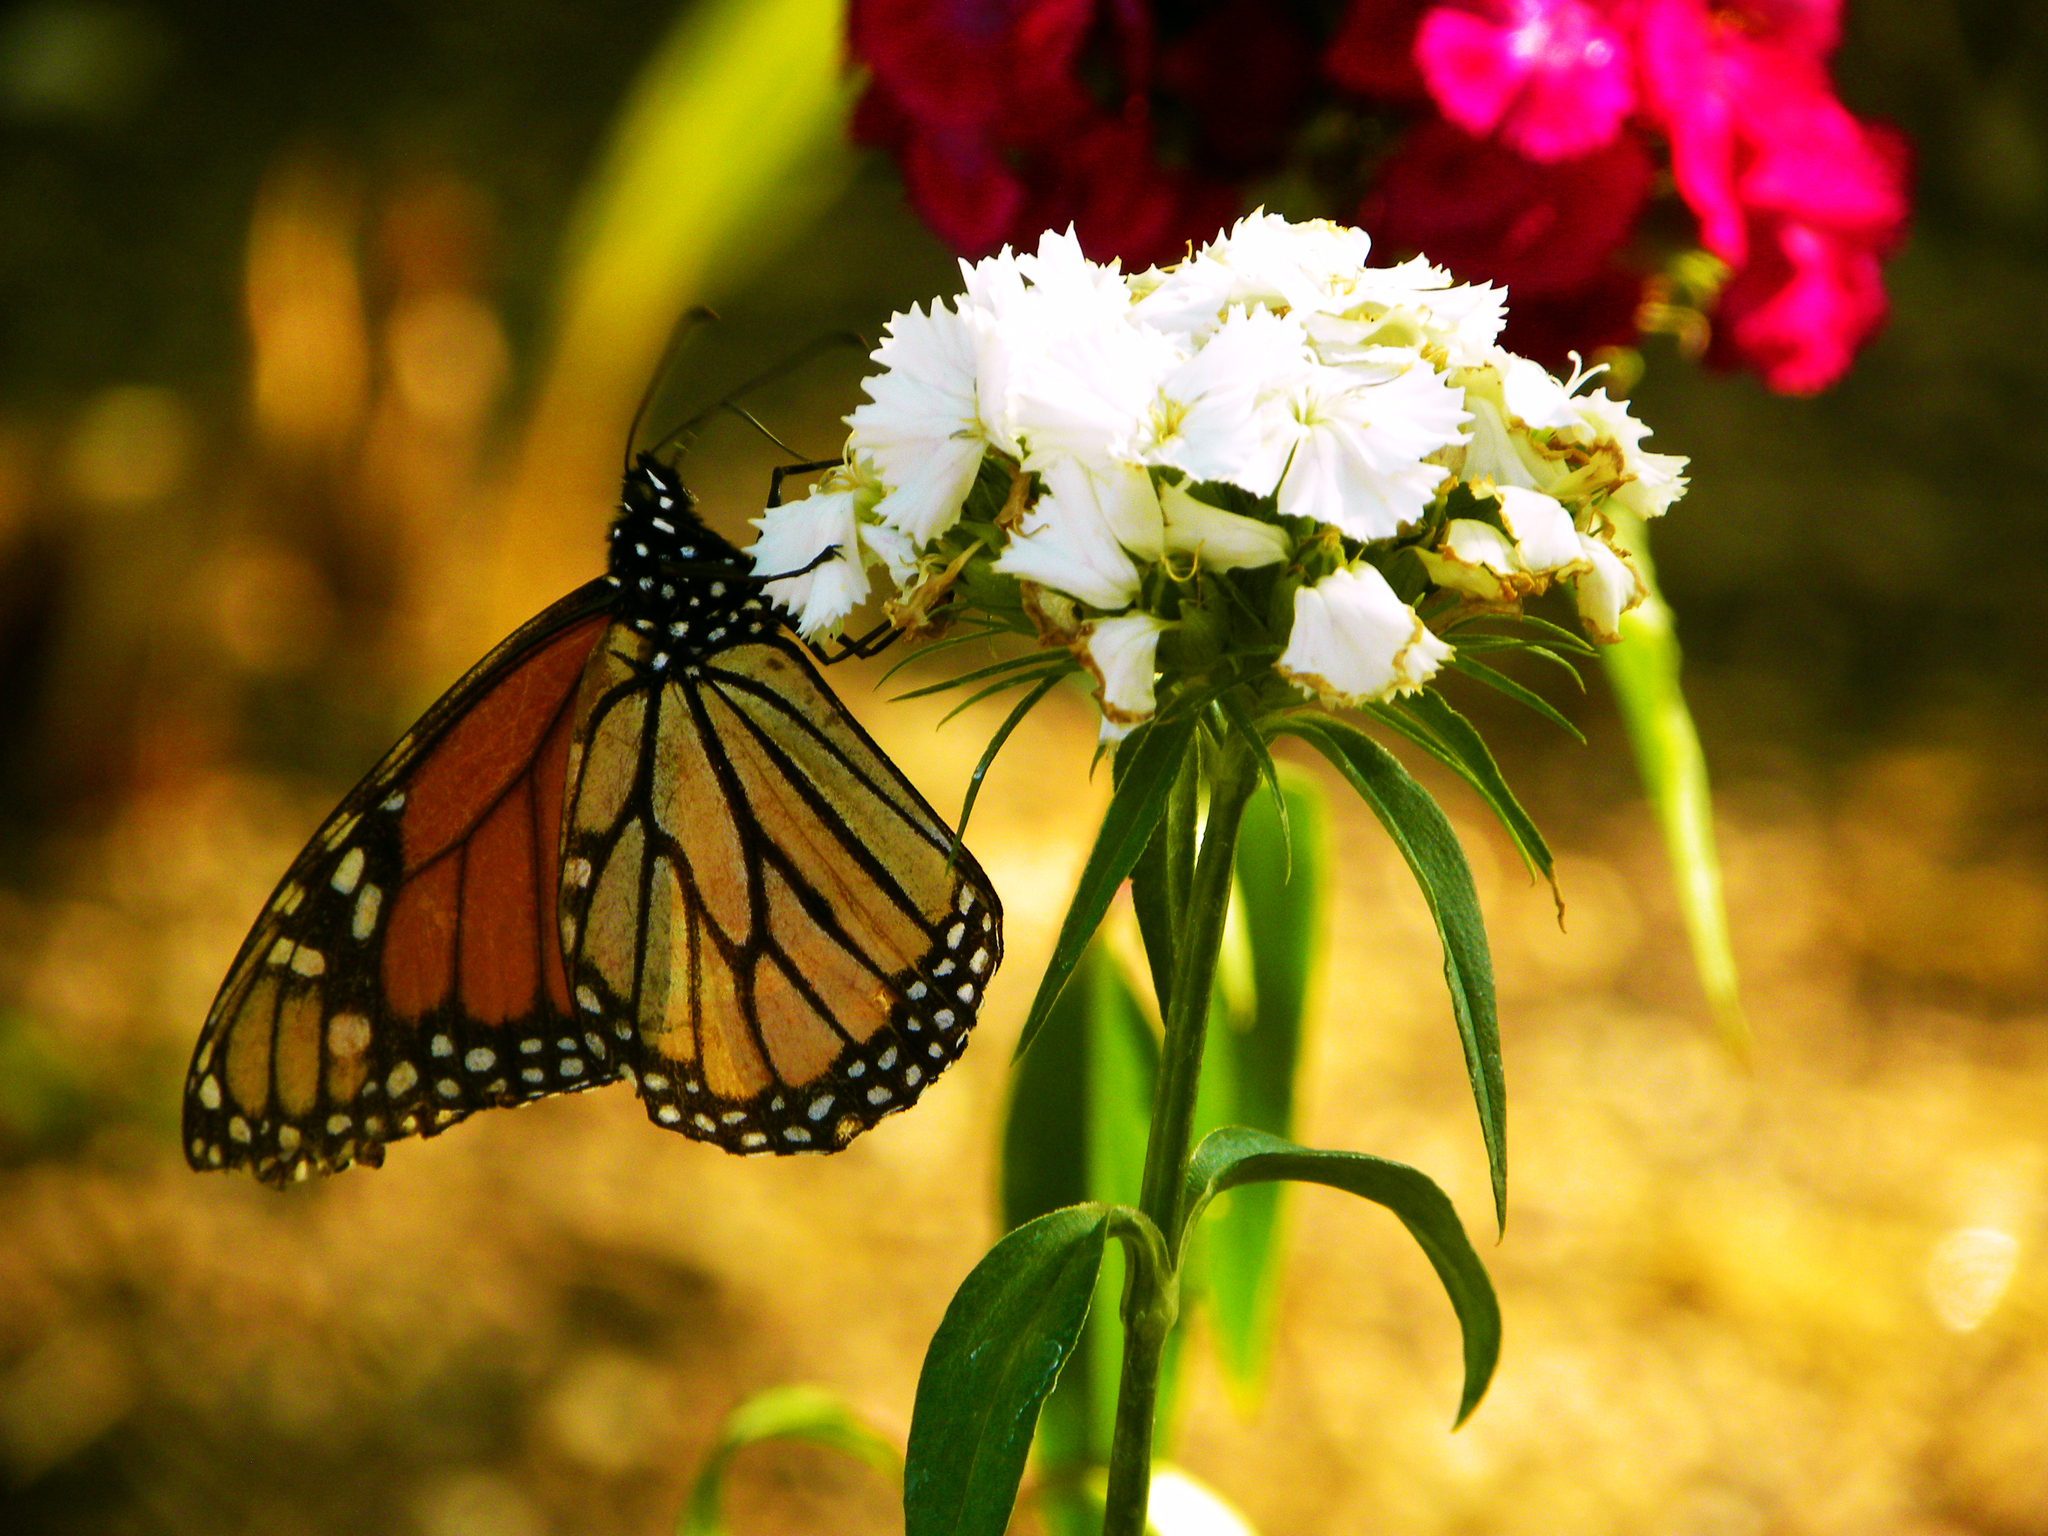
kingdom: Animalia
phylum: Arthropoda
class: Insecta
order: Lepidoptera
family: Nymphalidae
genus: Danaus
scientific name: Danaus plexippus
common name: Monarch
